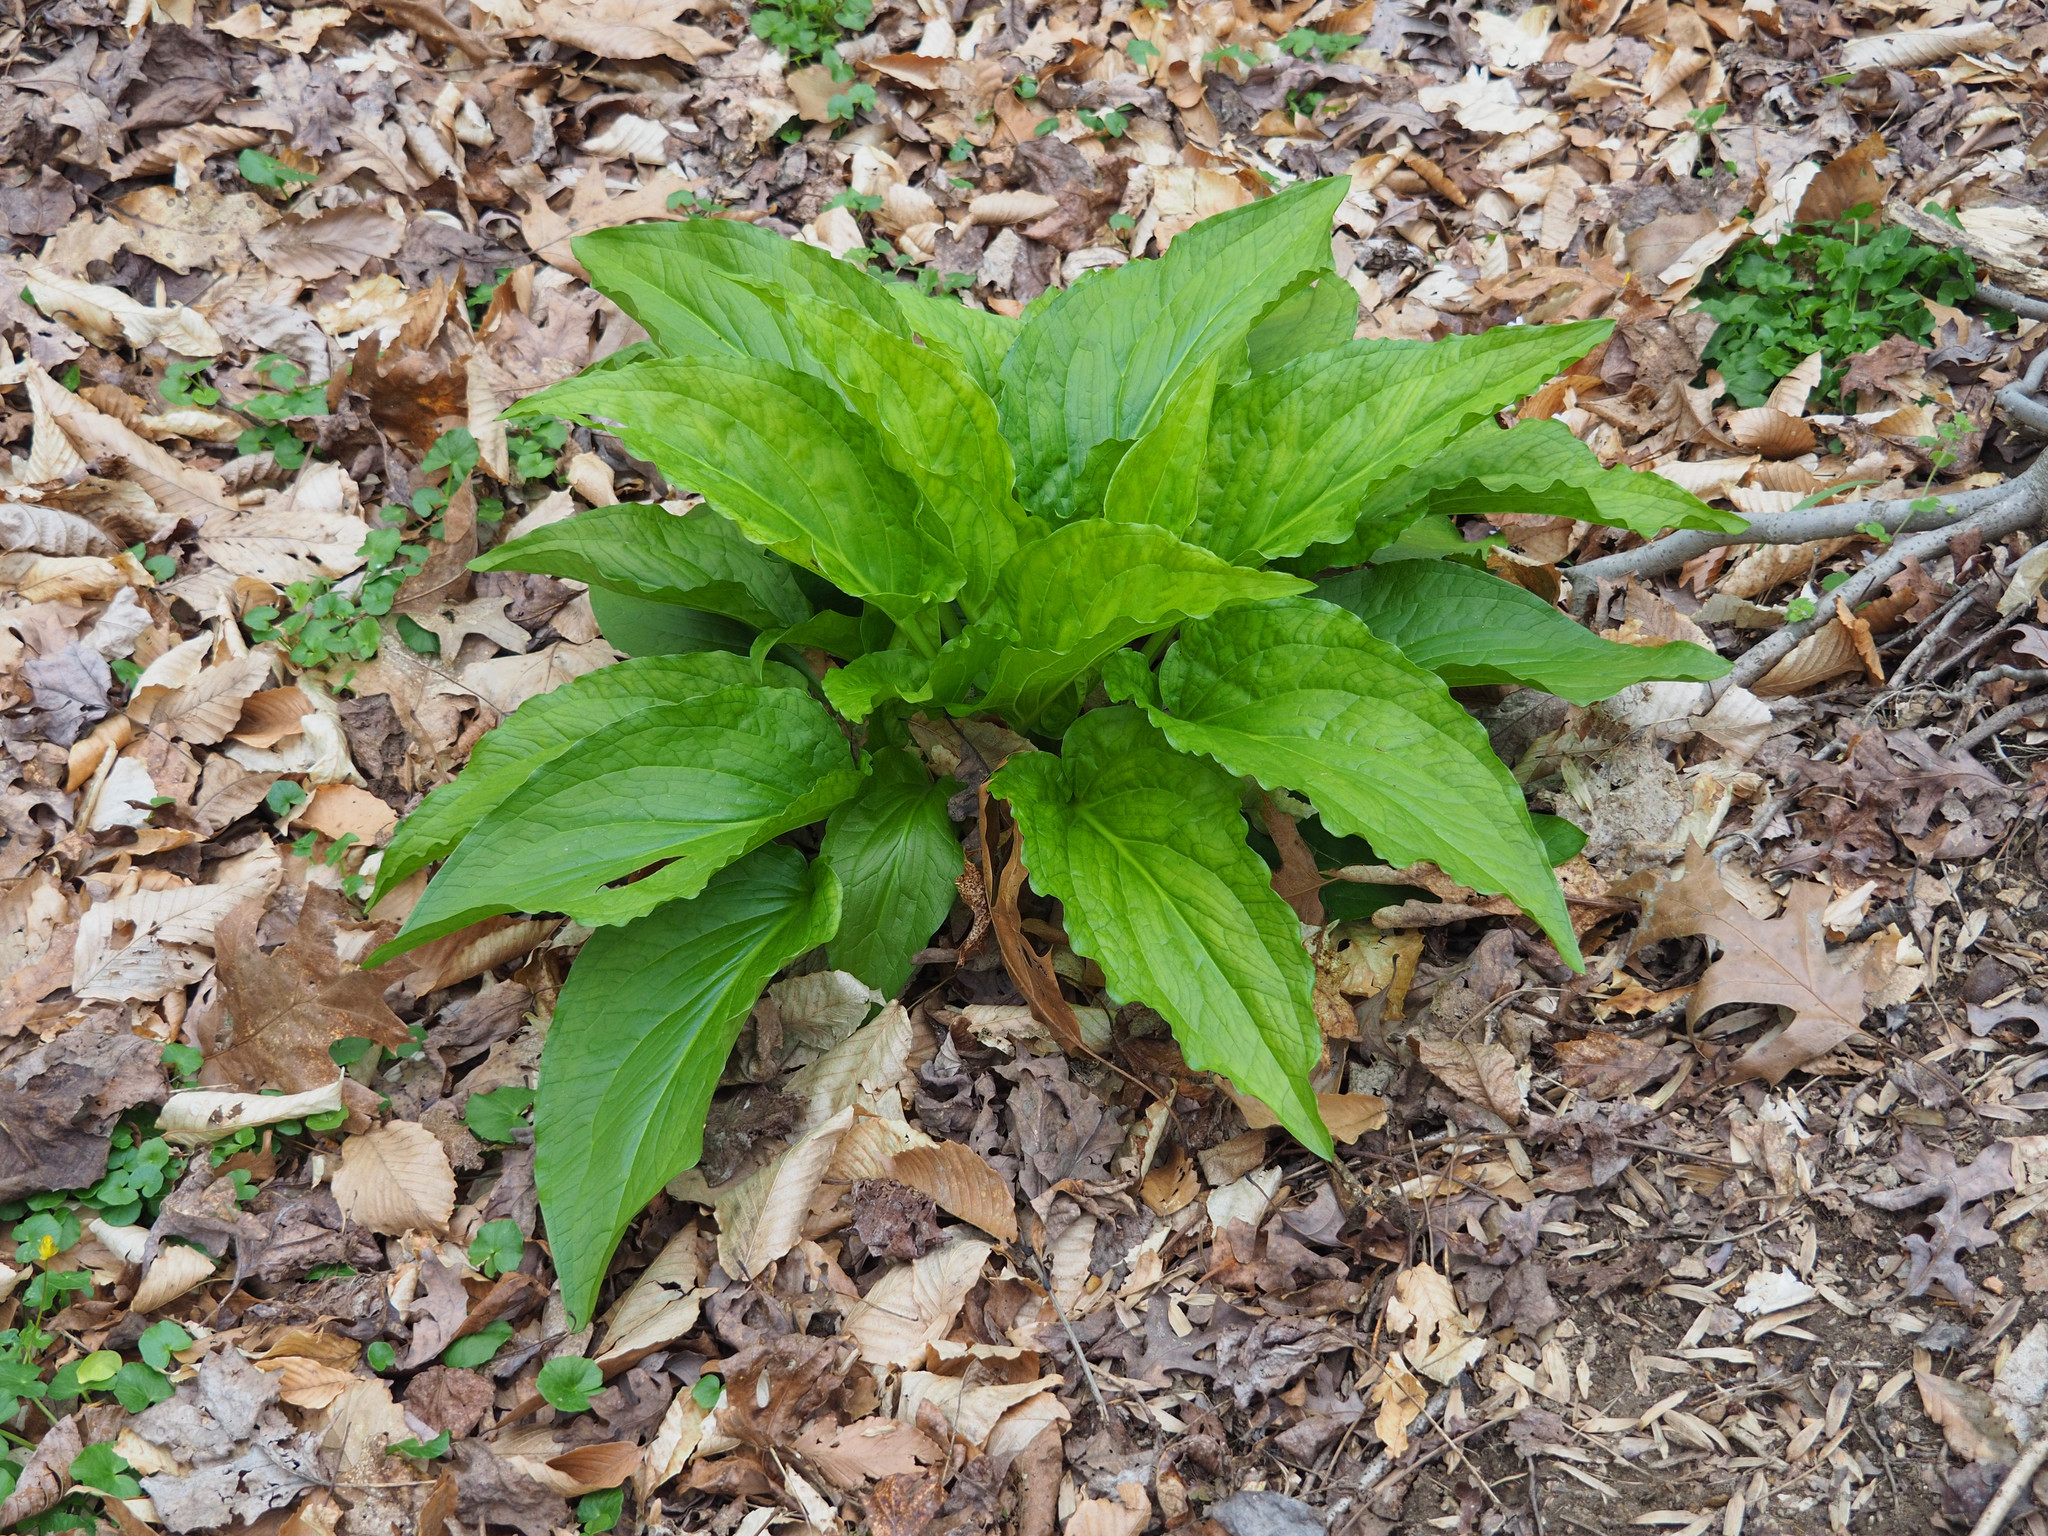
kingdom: Plantae
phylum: Tracheophyta
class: Liliopsida
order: Alismatales
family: Araceae
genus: Symplocarpus
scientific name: Symplocarpus foetidus
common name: Eastern skunk cabbage
